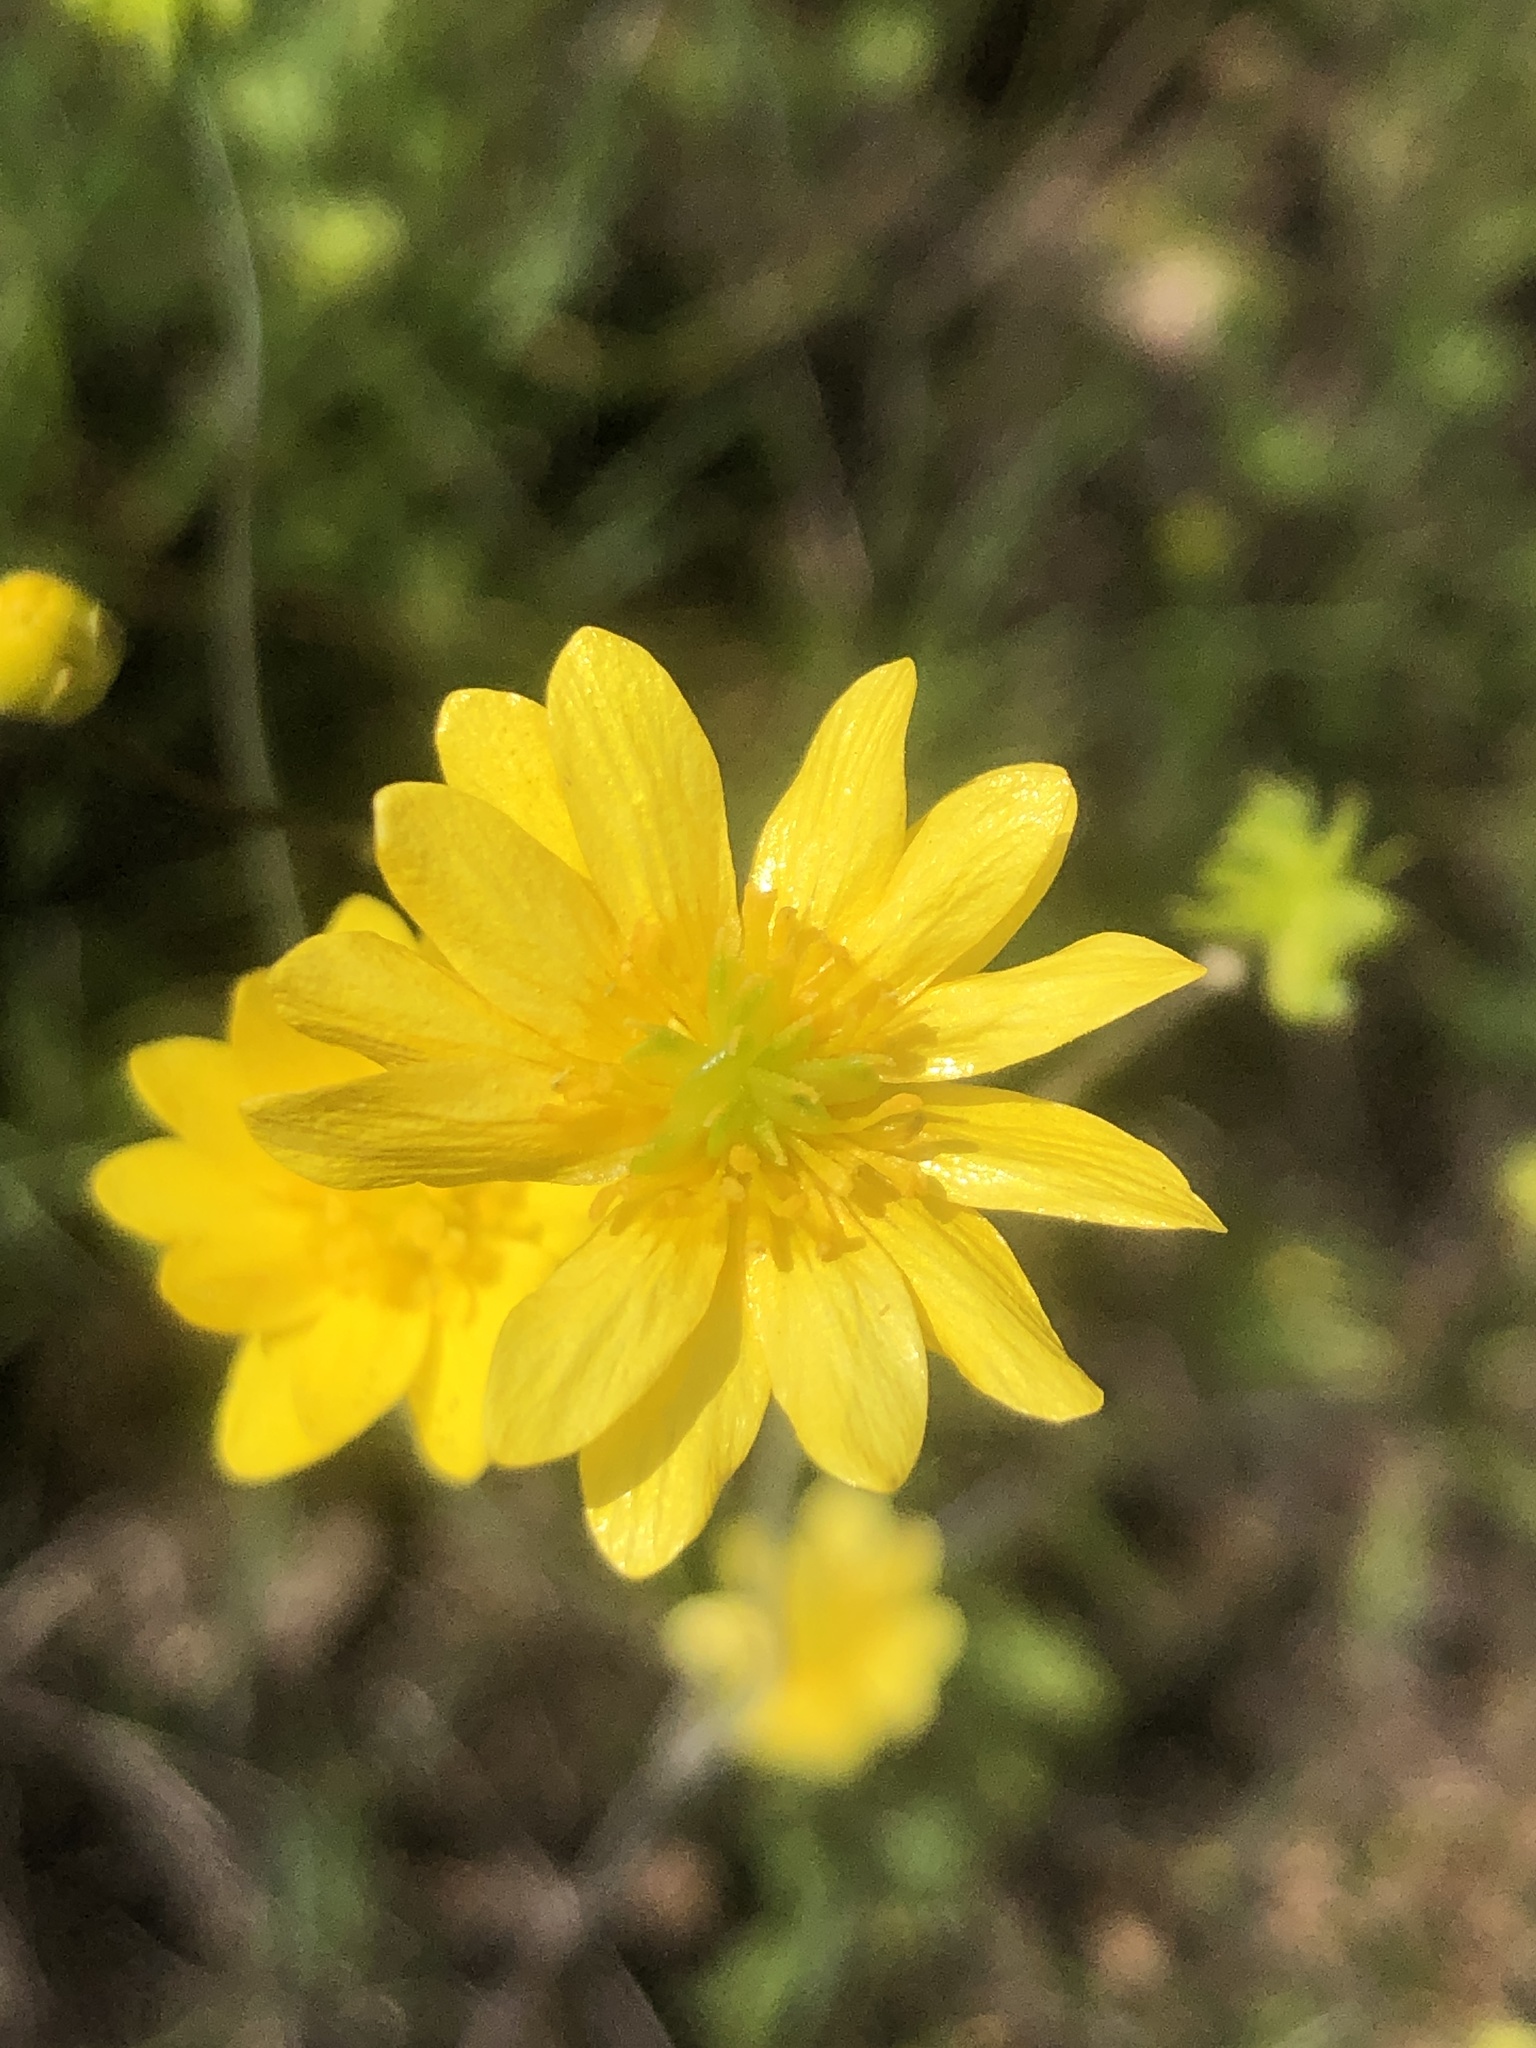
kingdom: Plantae
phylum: Tracheophyta
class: Magnoliopsida
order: Ranunculales
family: Ranunculaceae
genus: Ranunculus
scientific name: Ranunculus californicus
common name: California buttercup
